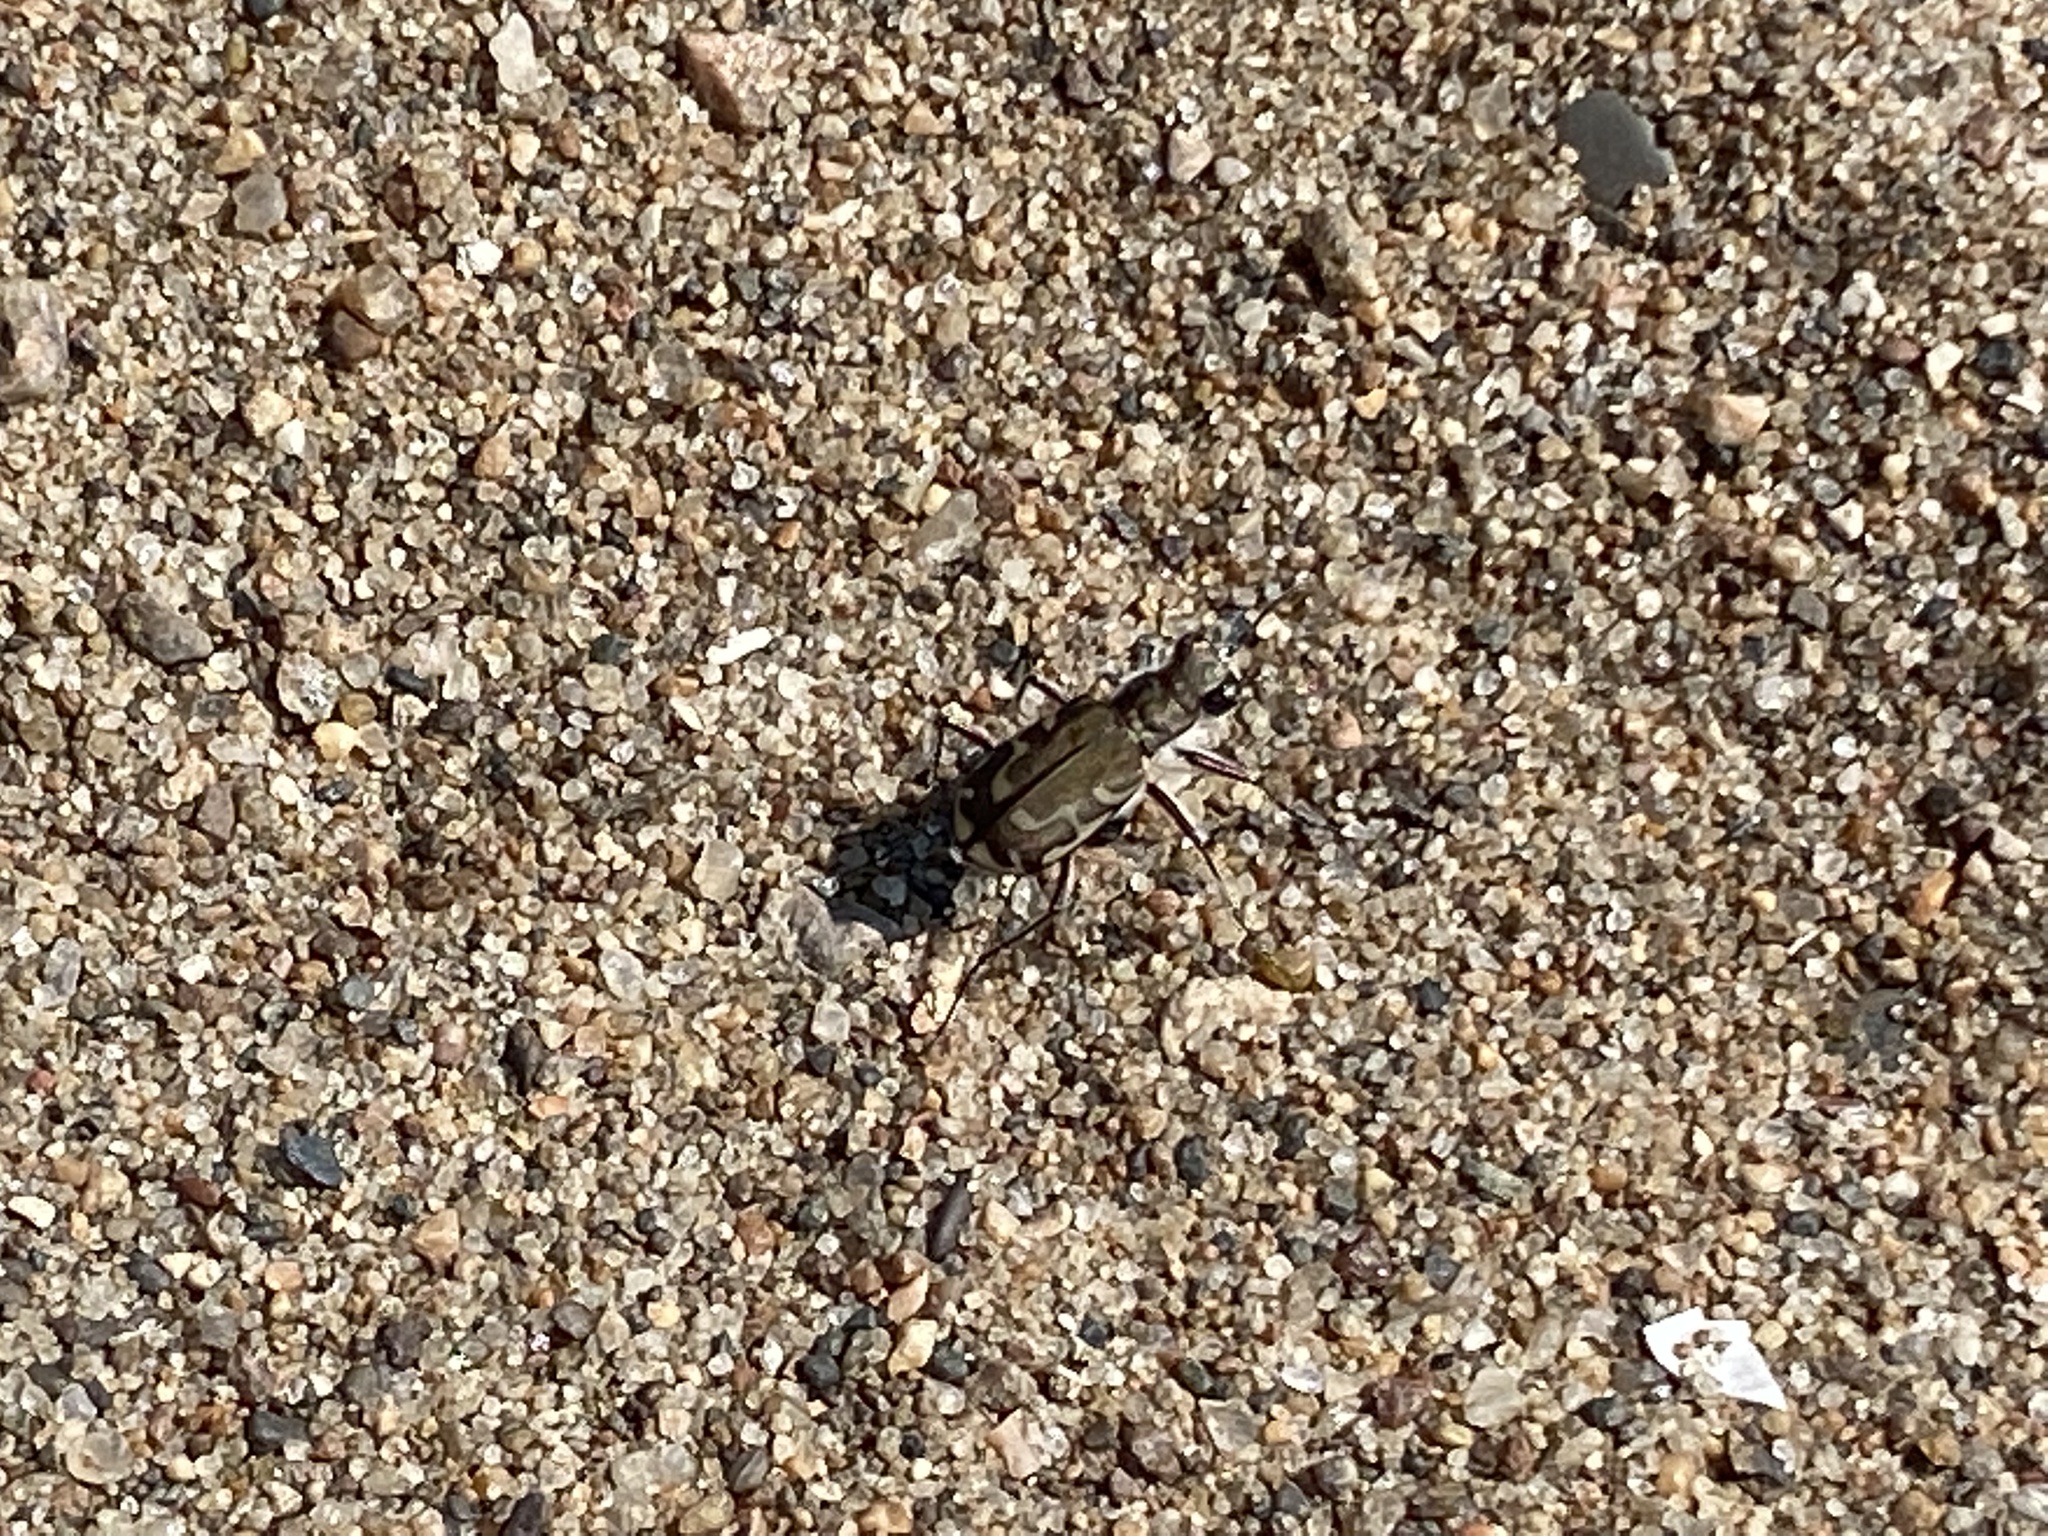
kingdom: Animalia
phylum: Arthropoda
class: Insecta
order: Coleoptera
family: Carabidae
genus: Cicindela
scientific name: Cicindela repanda
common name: Bronzed tiger beetle
